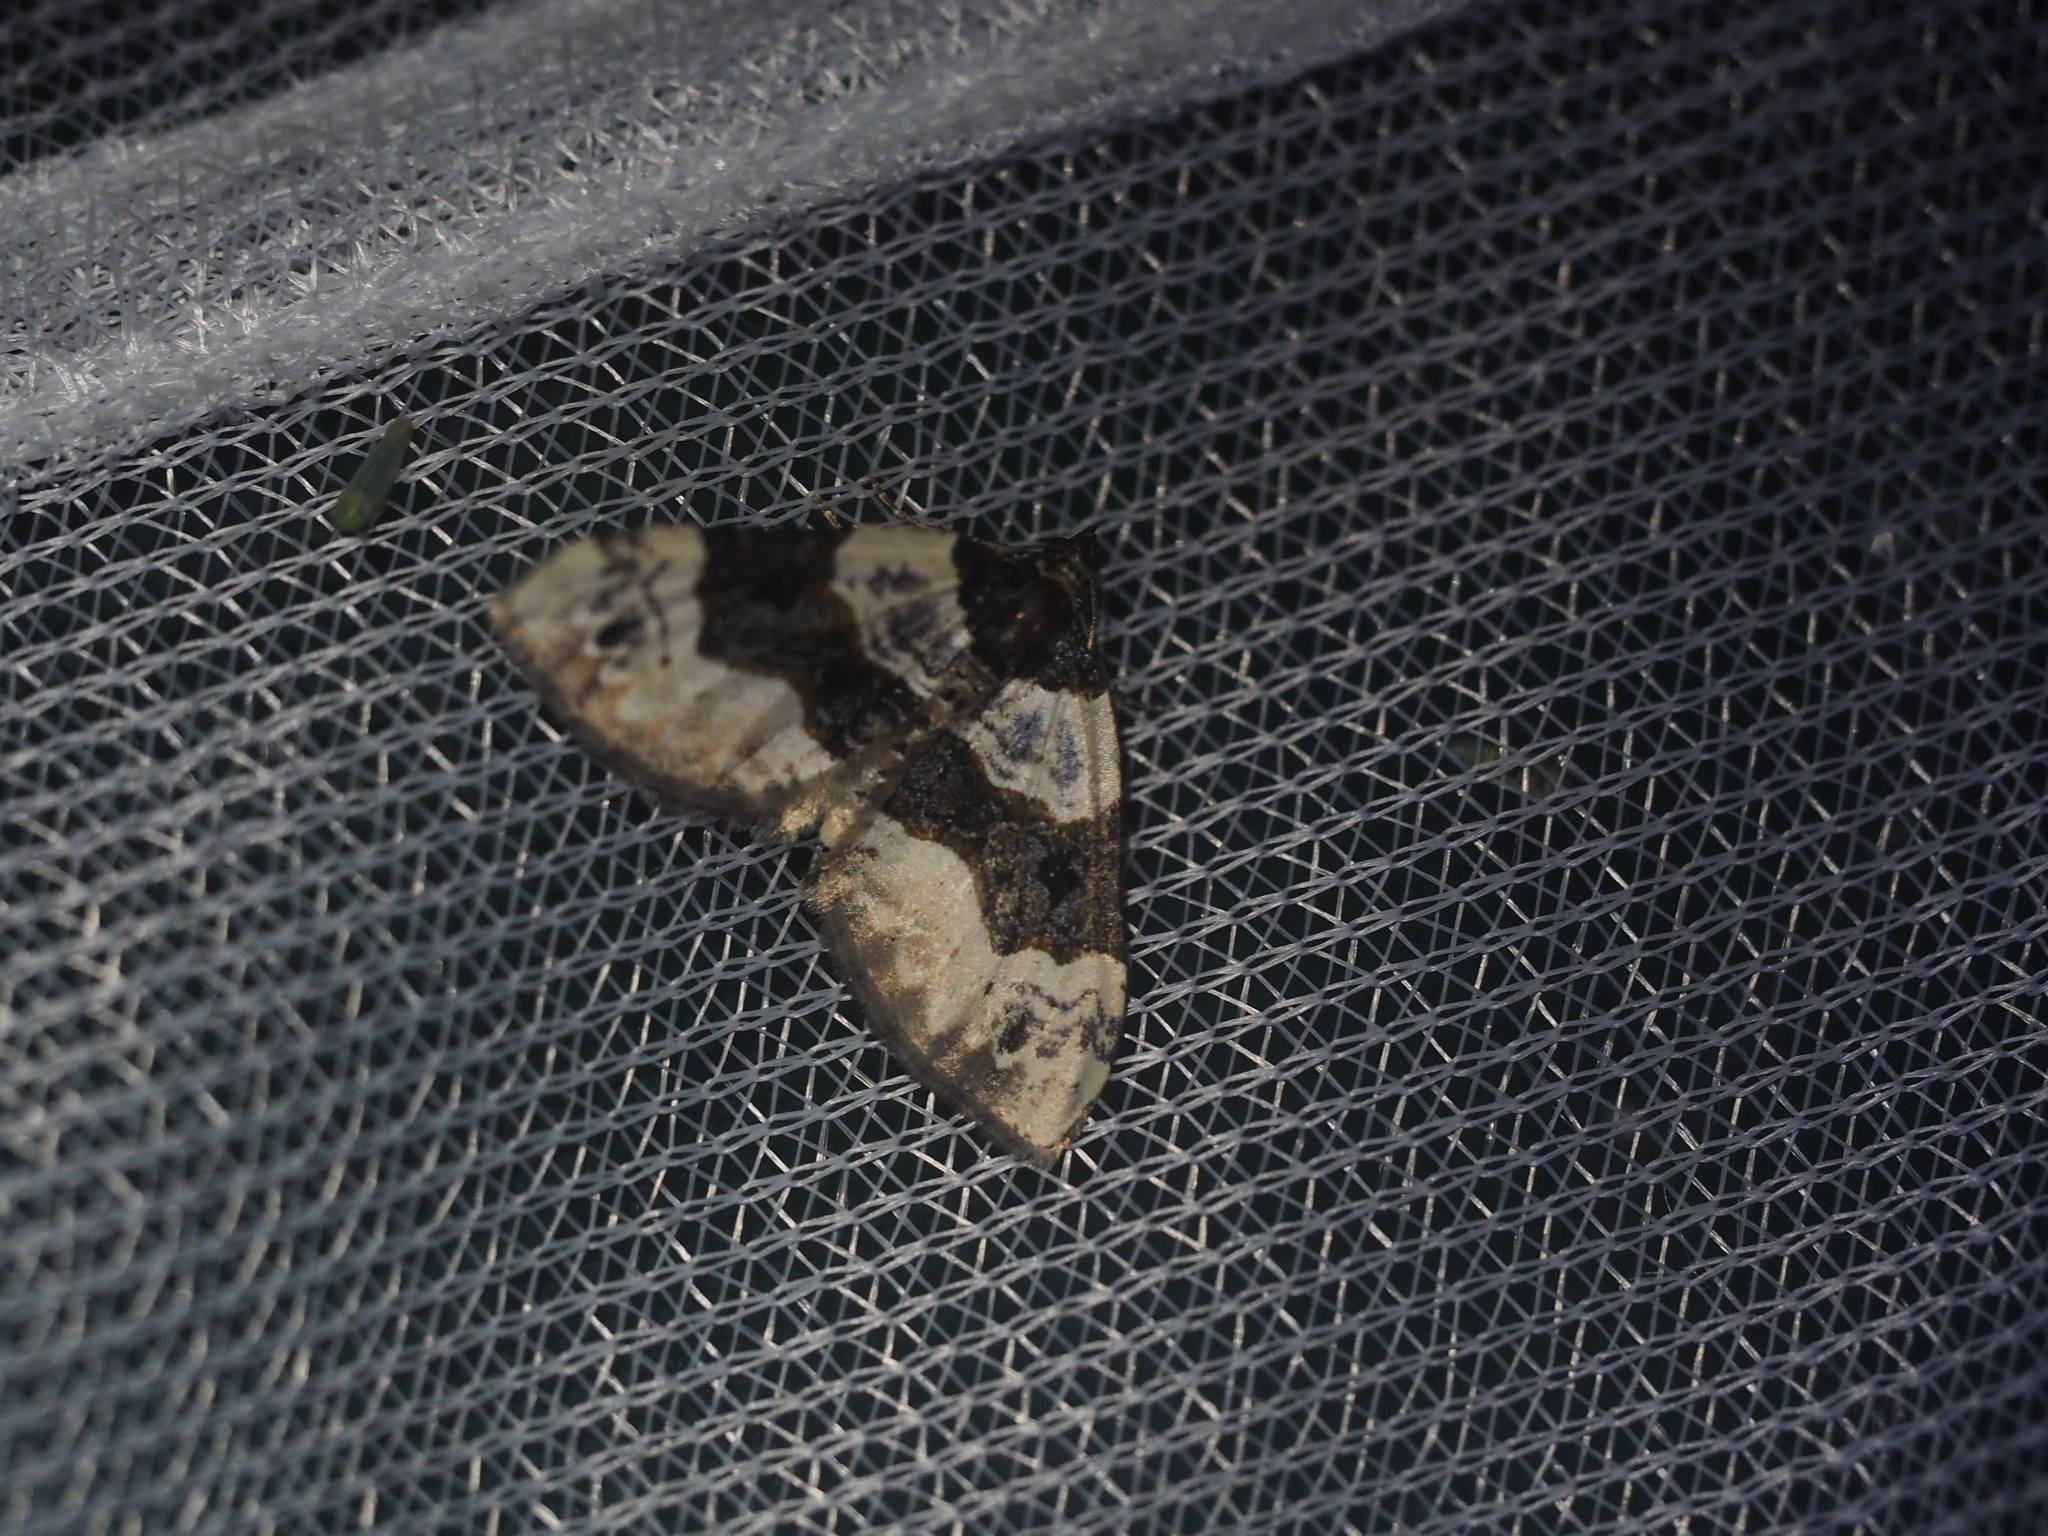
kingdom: Animalia
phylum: Arthropoda
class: Insecta
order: Lepidoptera
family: Geometridae
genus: Cosmorhoe
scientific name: Cosmorhoe ocellata
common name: Purple bar
